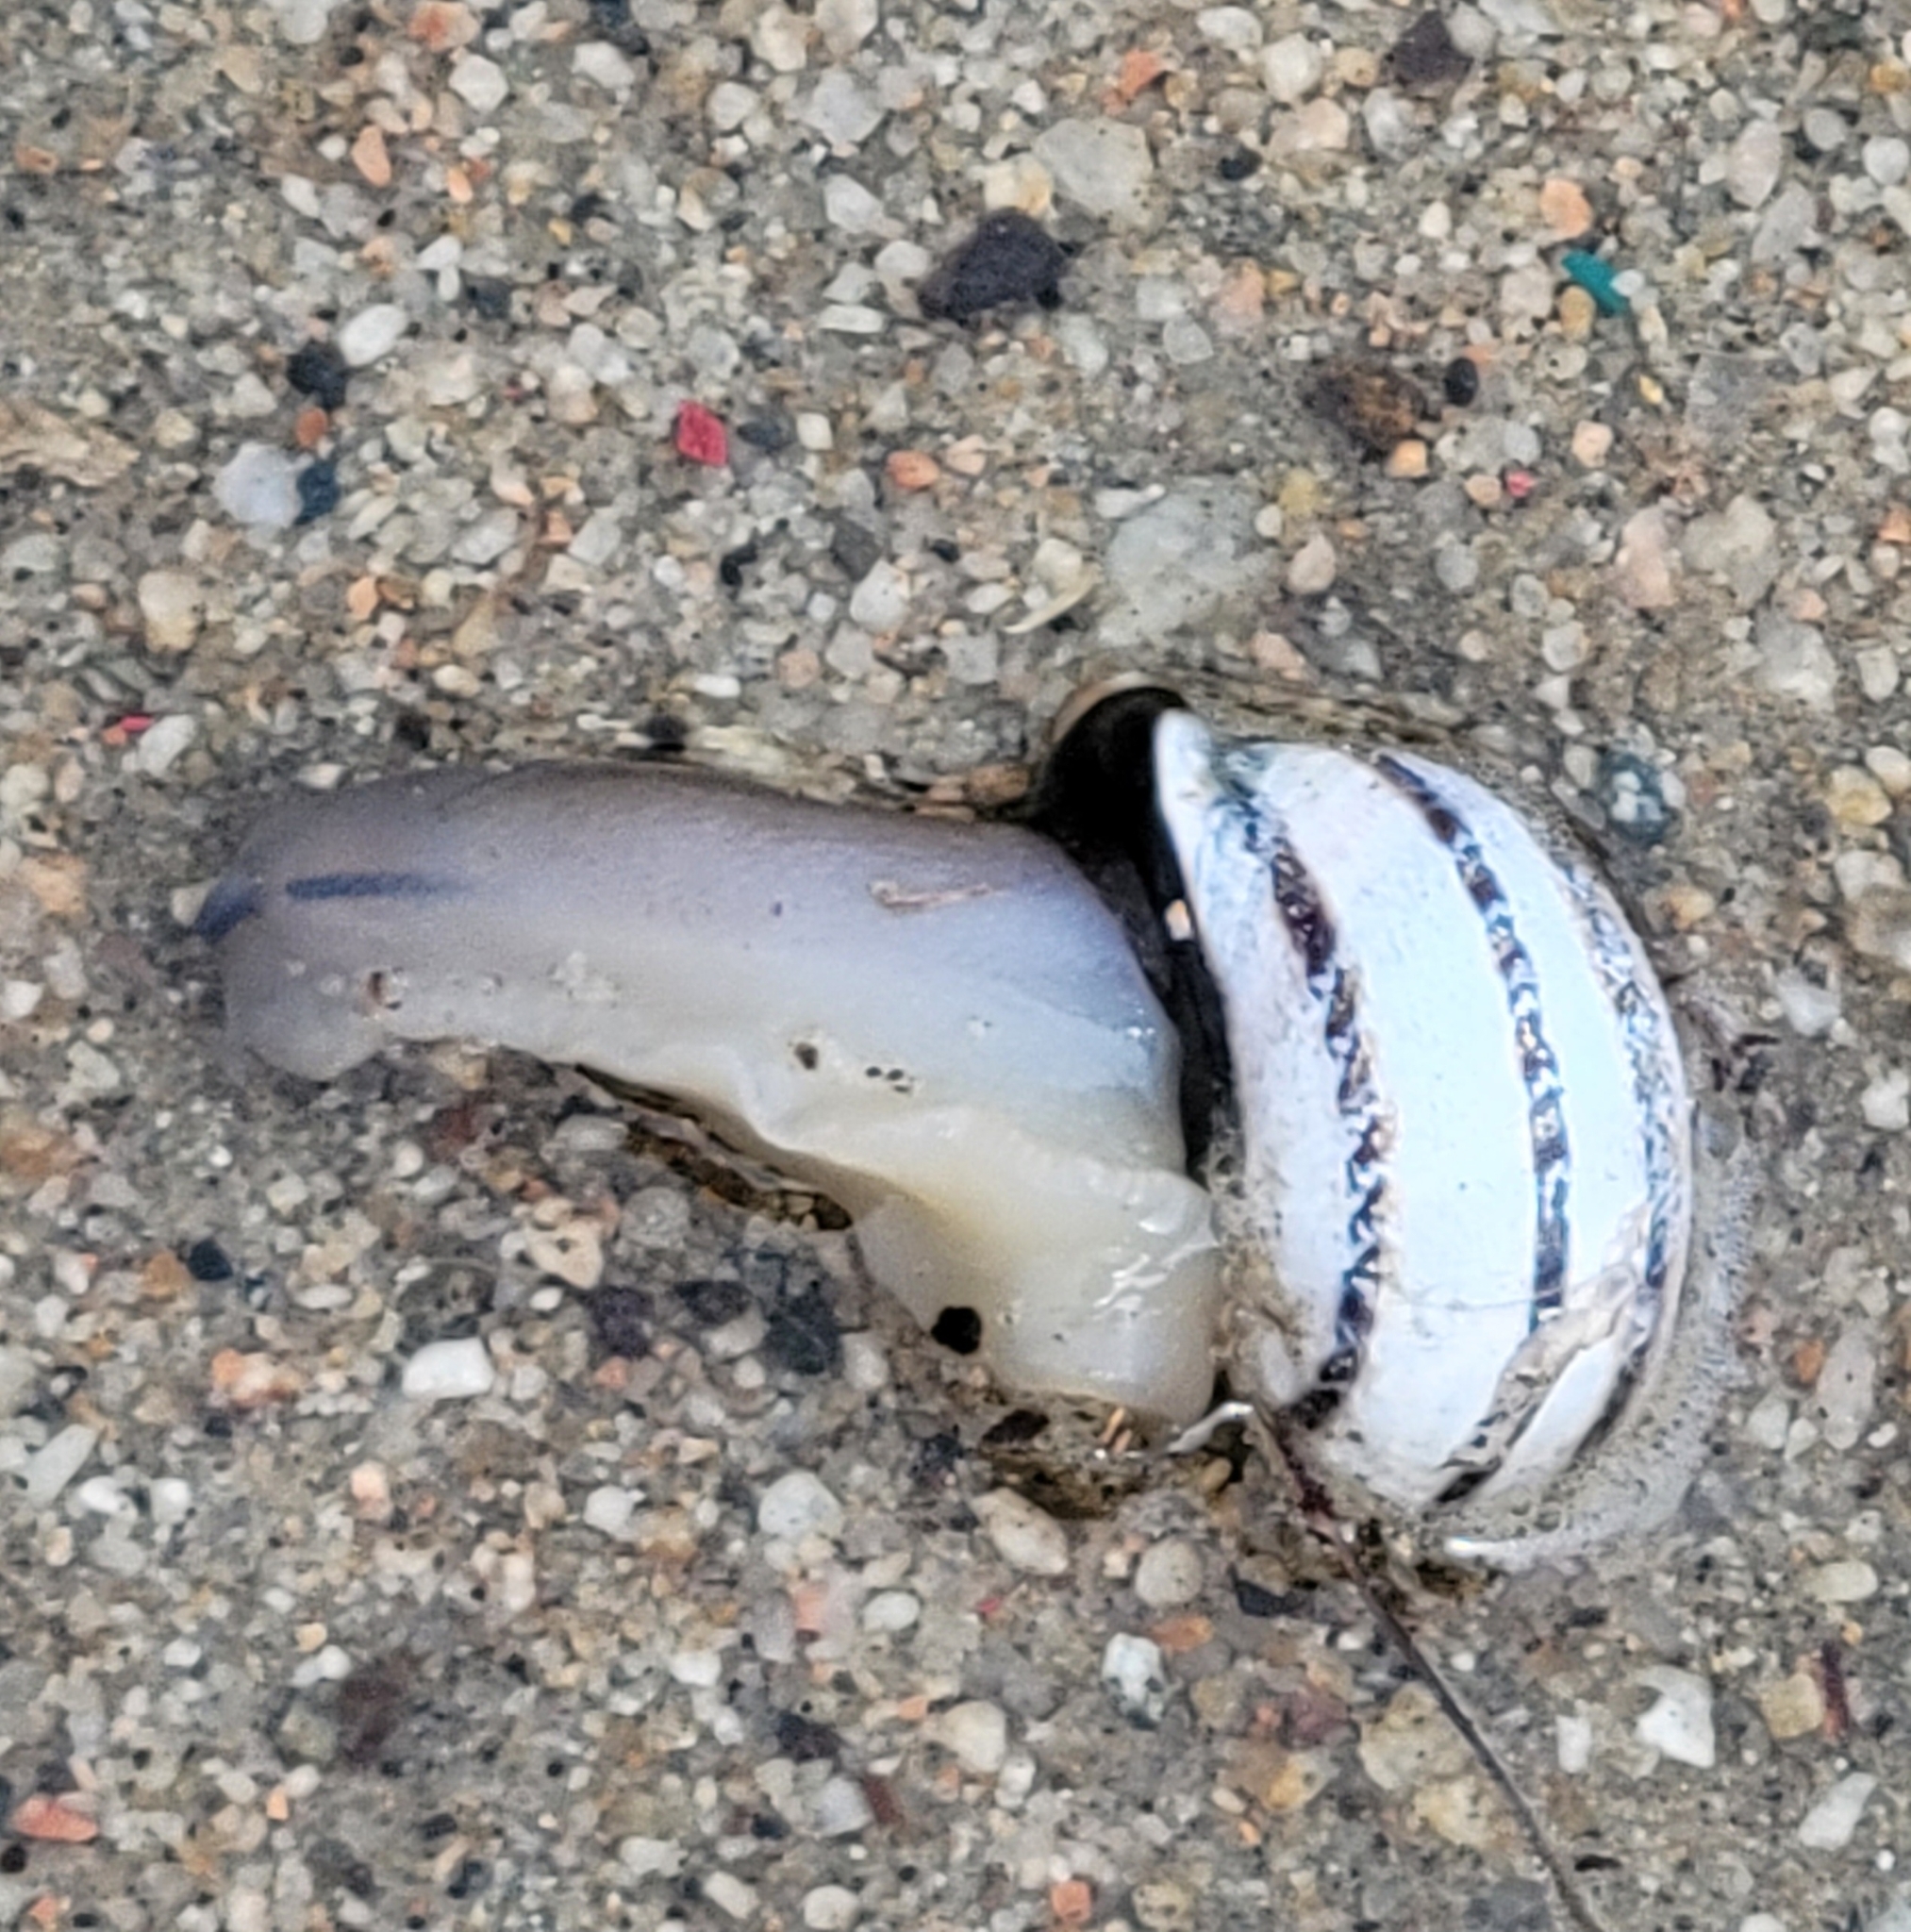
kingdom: Animalia
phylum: Mollusca
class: Gastropoda
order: Stylommatophora
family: Helicidae
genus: Otala
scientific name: Otala lactea
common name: Milk snail
